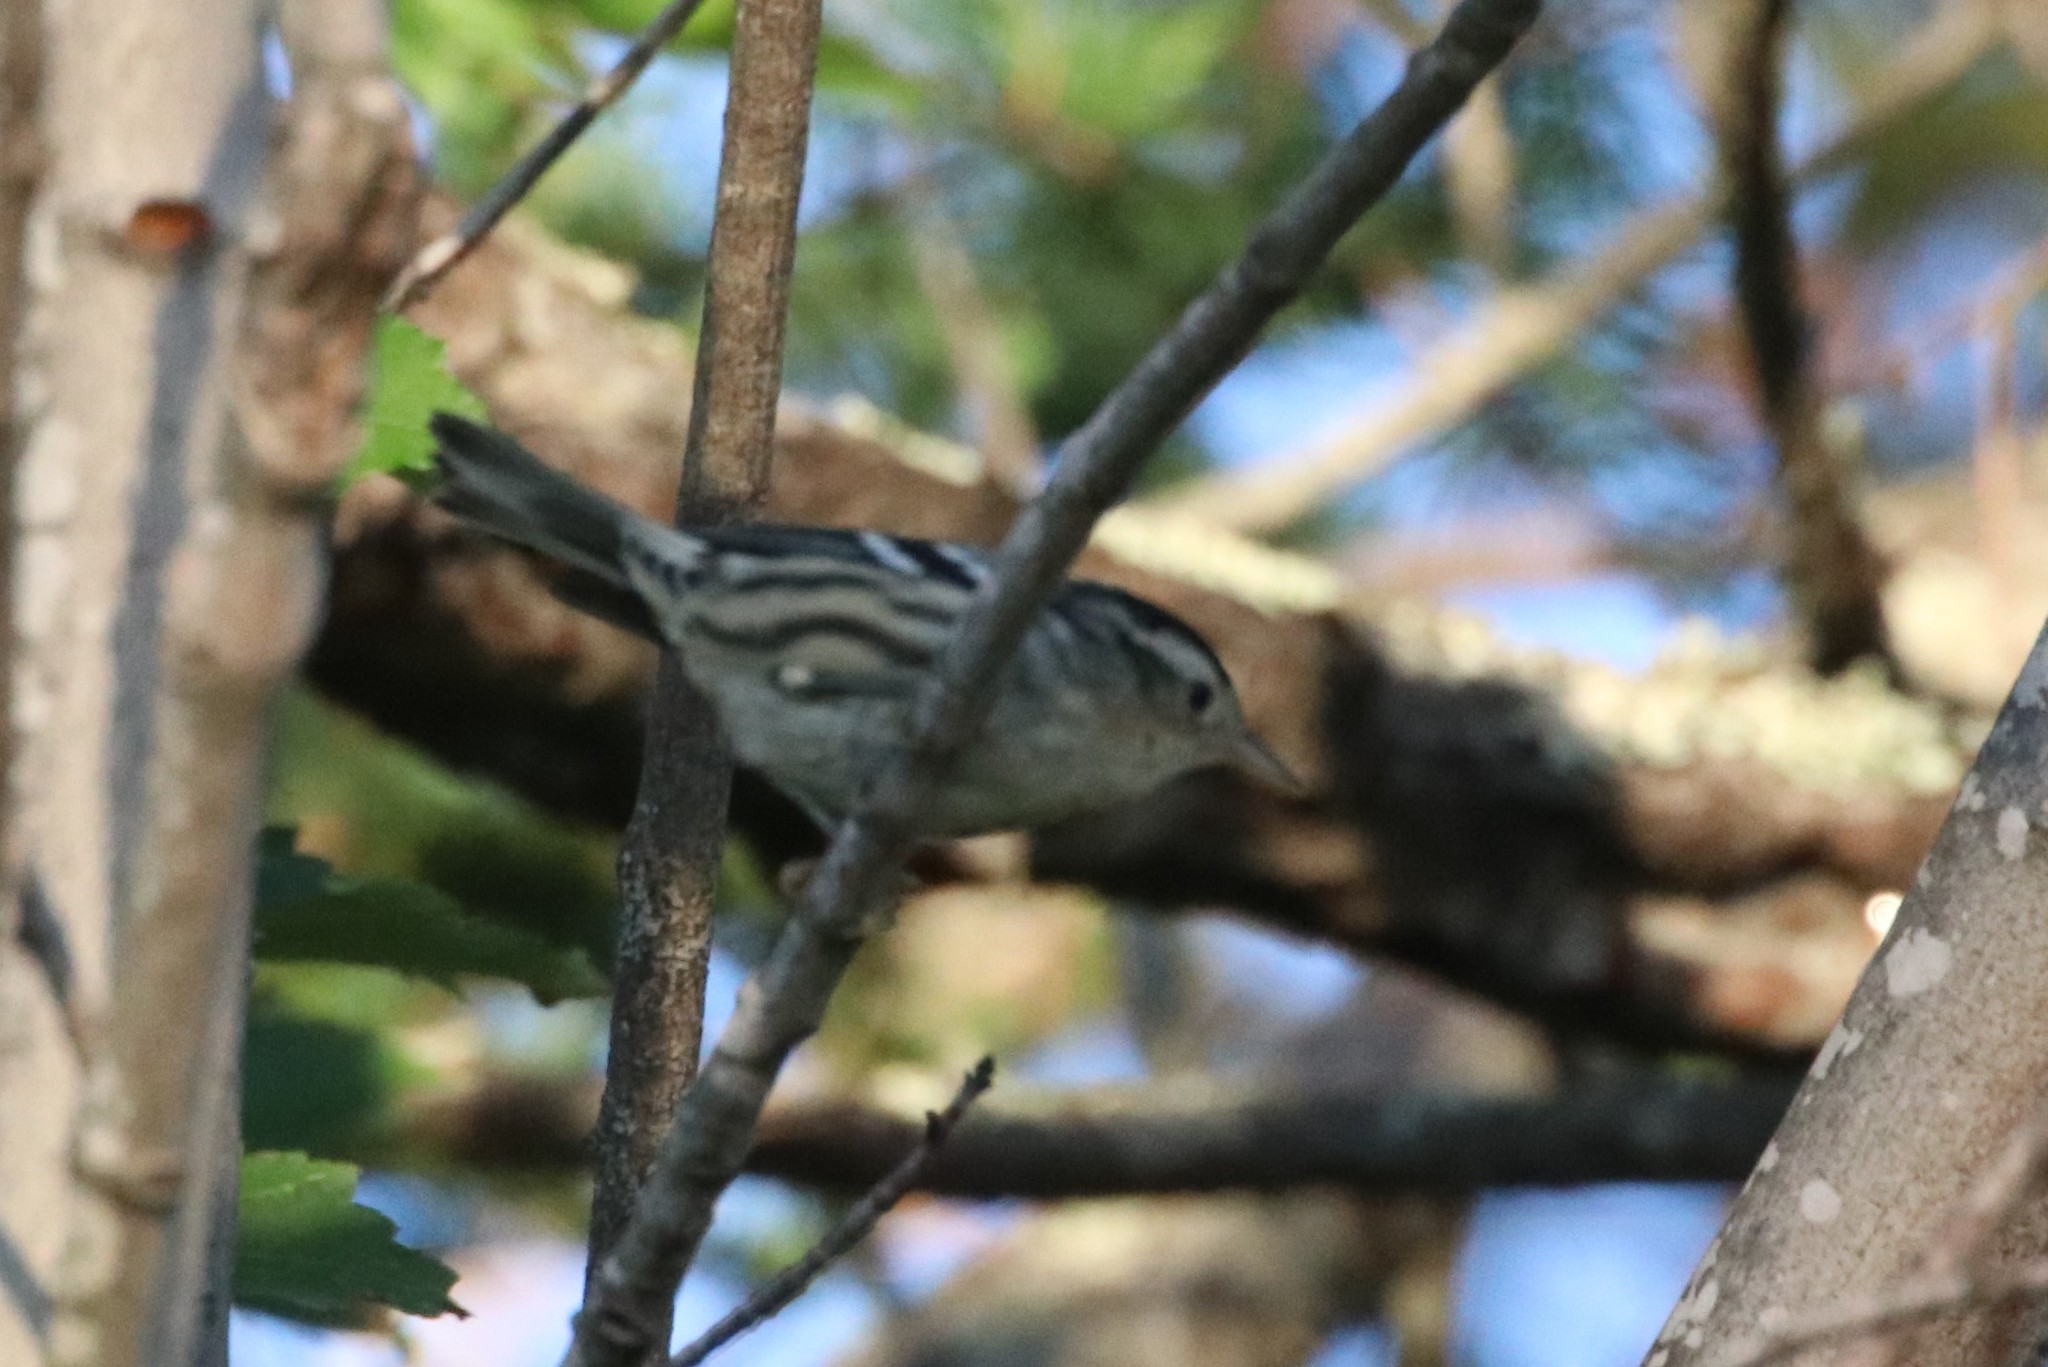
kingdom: Animalia
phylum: Chordata
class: Aves
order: Passeriformes
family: Parulidae
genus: Mniotilta
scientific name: Mniotilta varia
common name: Black-and-white warbler
